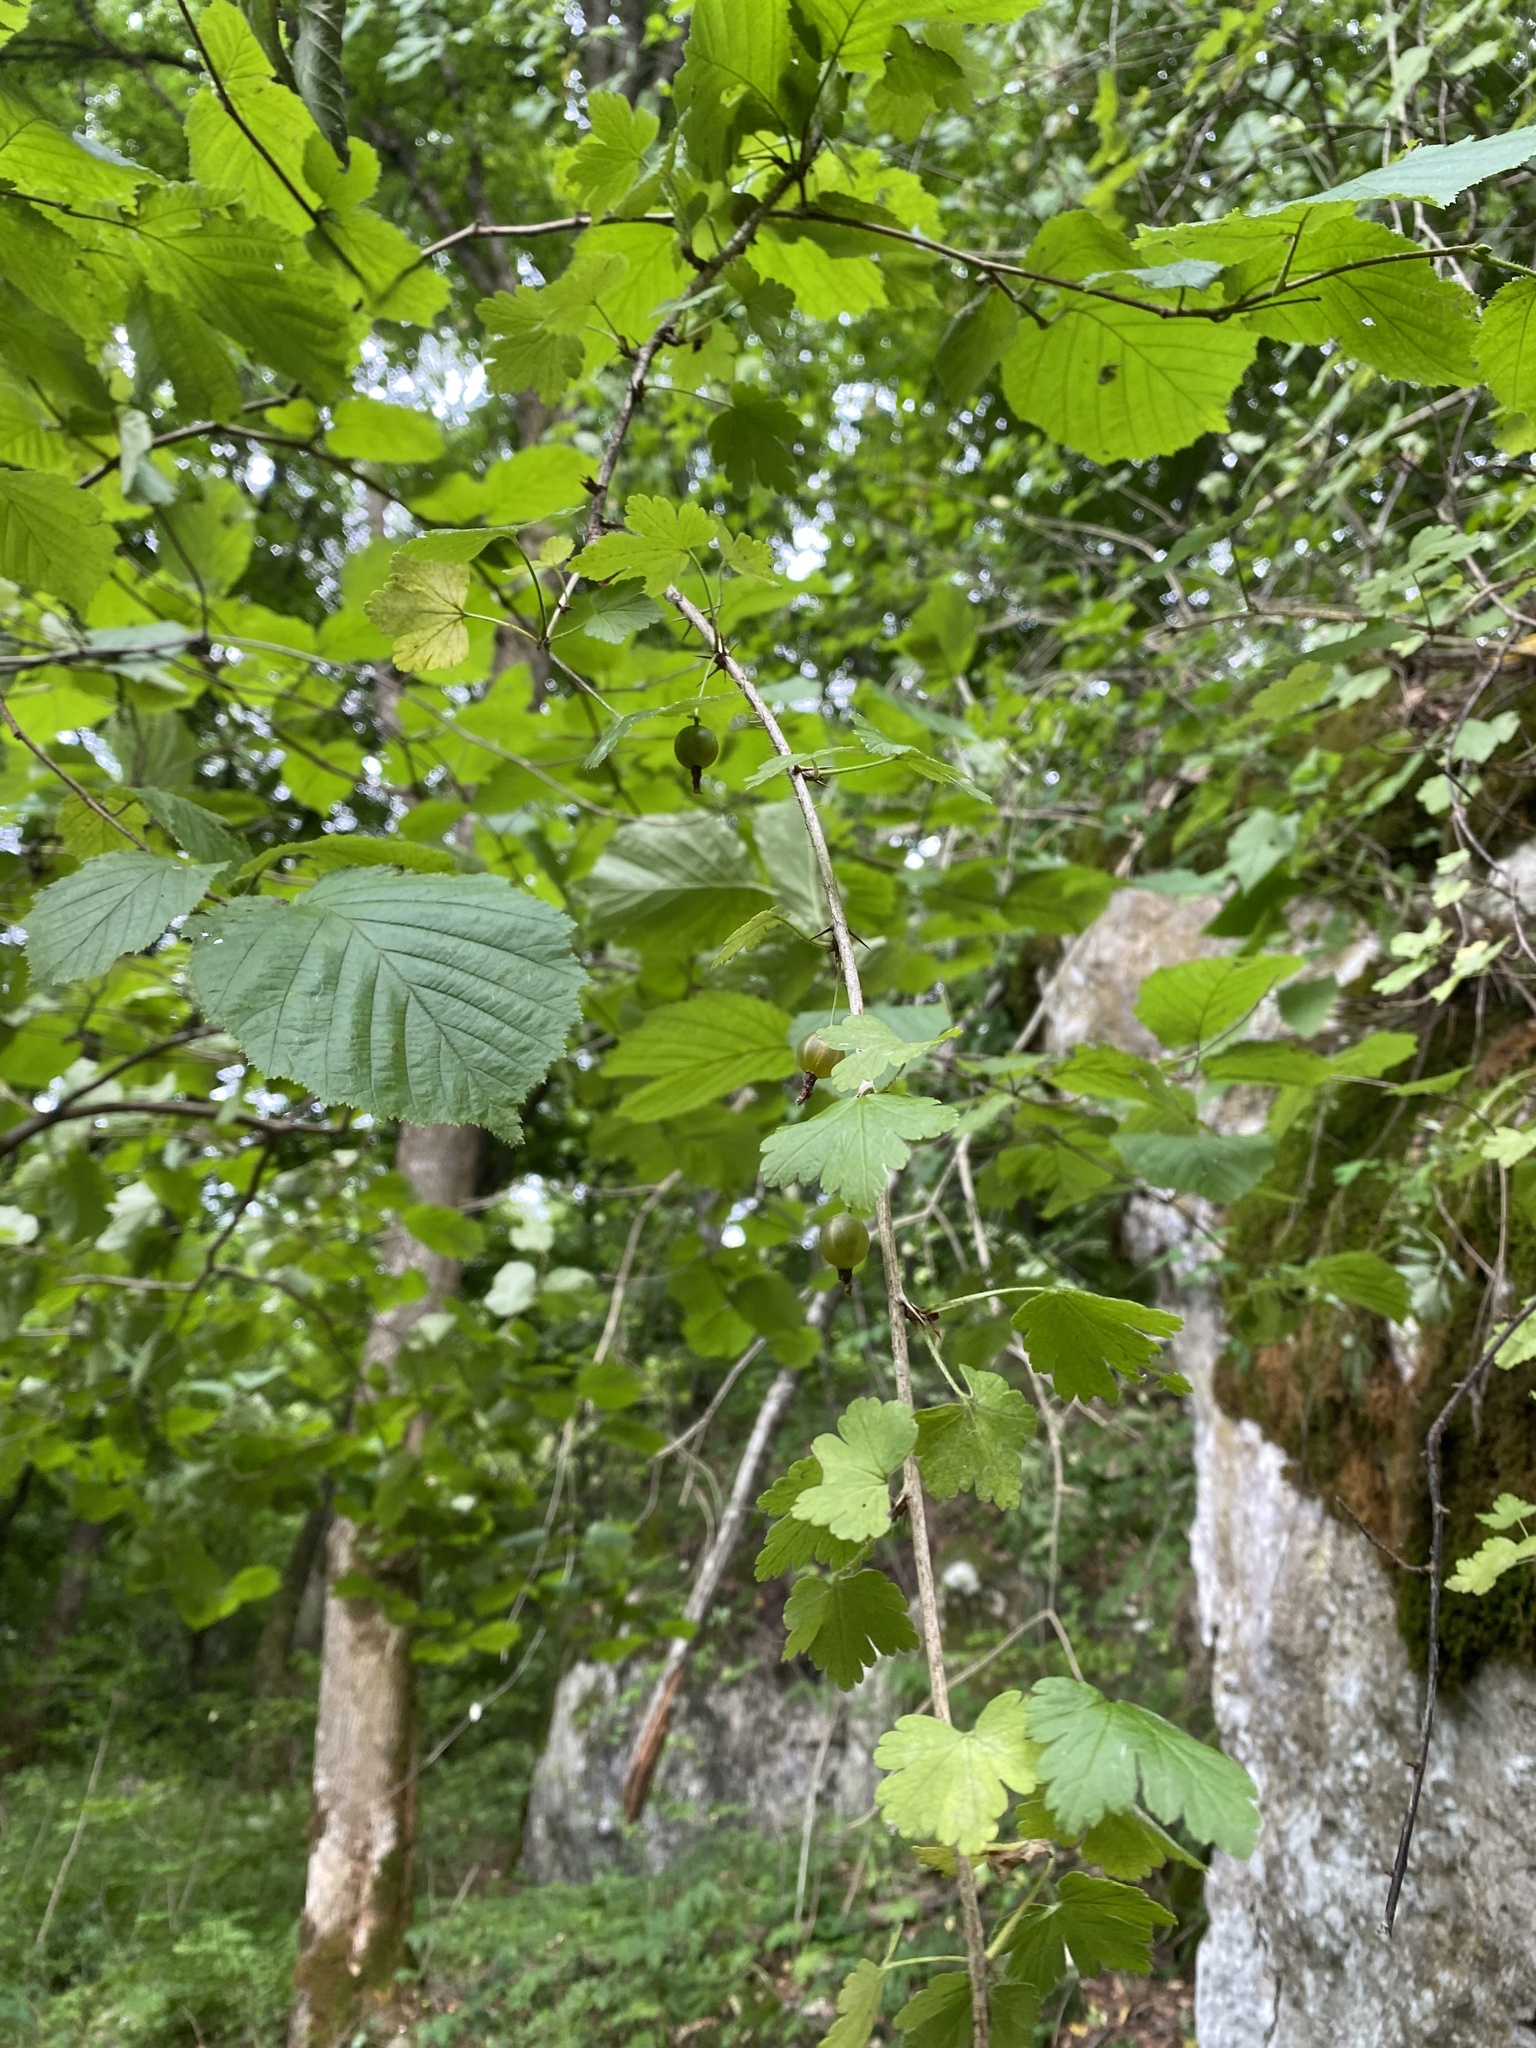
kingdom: Plantae
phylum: Tracheophyta
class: Magnoliopsida
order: Saxifragales
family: Grossulariaceae
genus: Ribes
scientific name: Ribes uva-crispa
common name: Gooseberry
